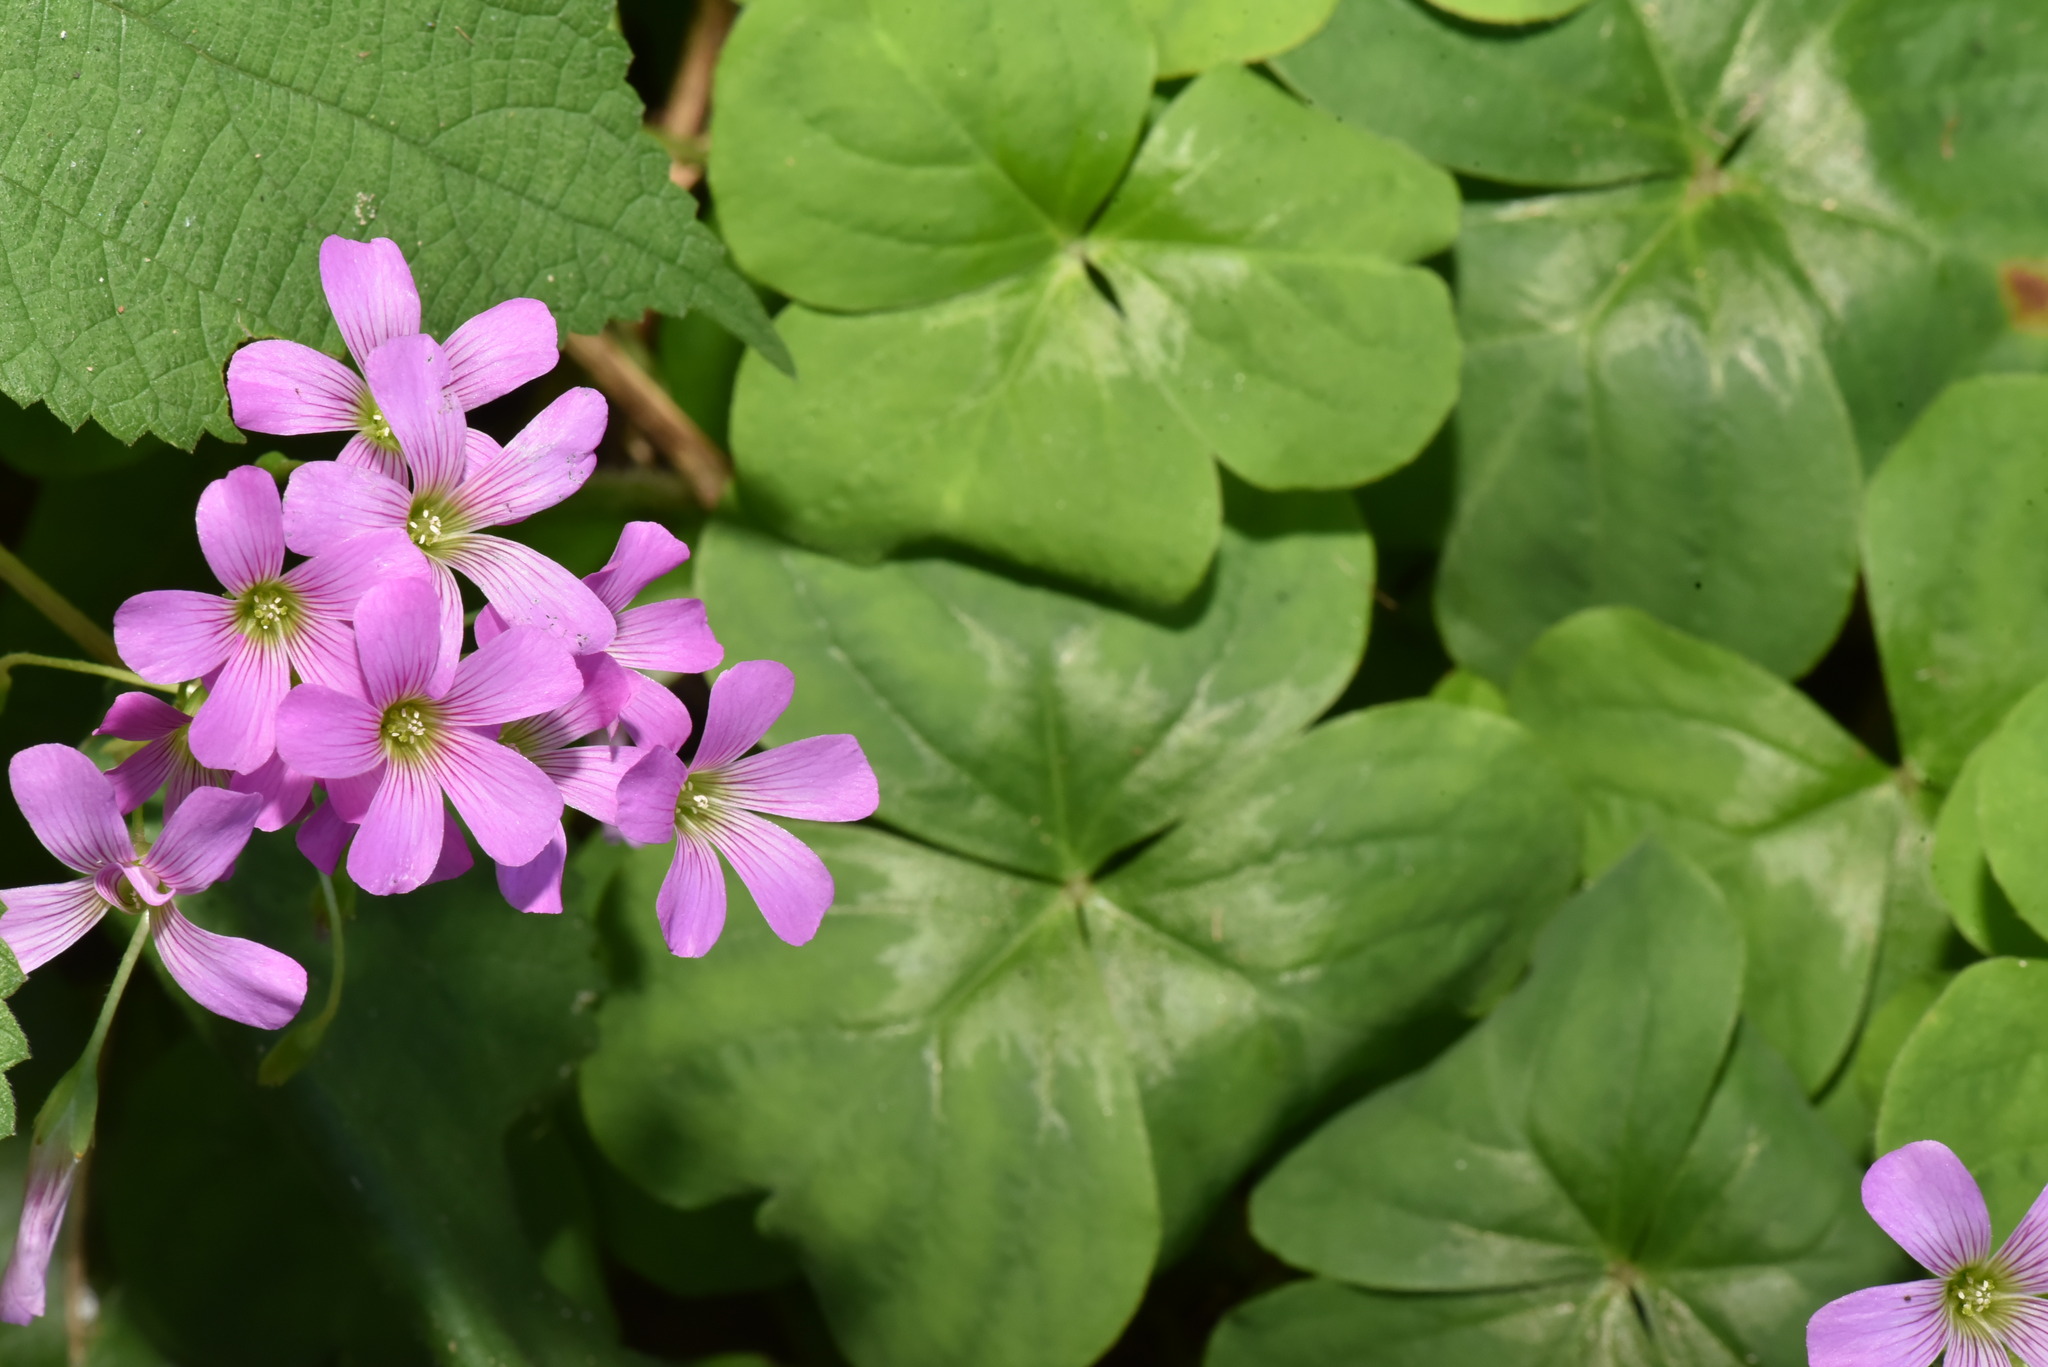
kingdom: Plantae
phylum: Tracheophyta
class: Magnoliopsida
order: Oxalidales
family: Oxalidaceae
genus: Oxalis
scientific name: Oxalis debilis
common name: Large-flowered pink-sorrel
